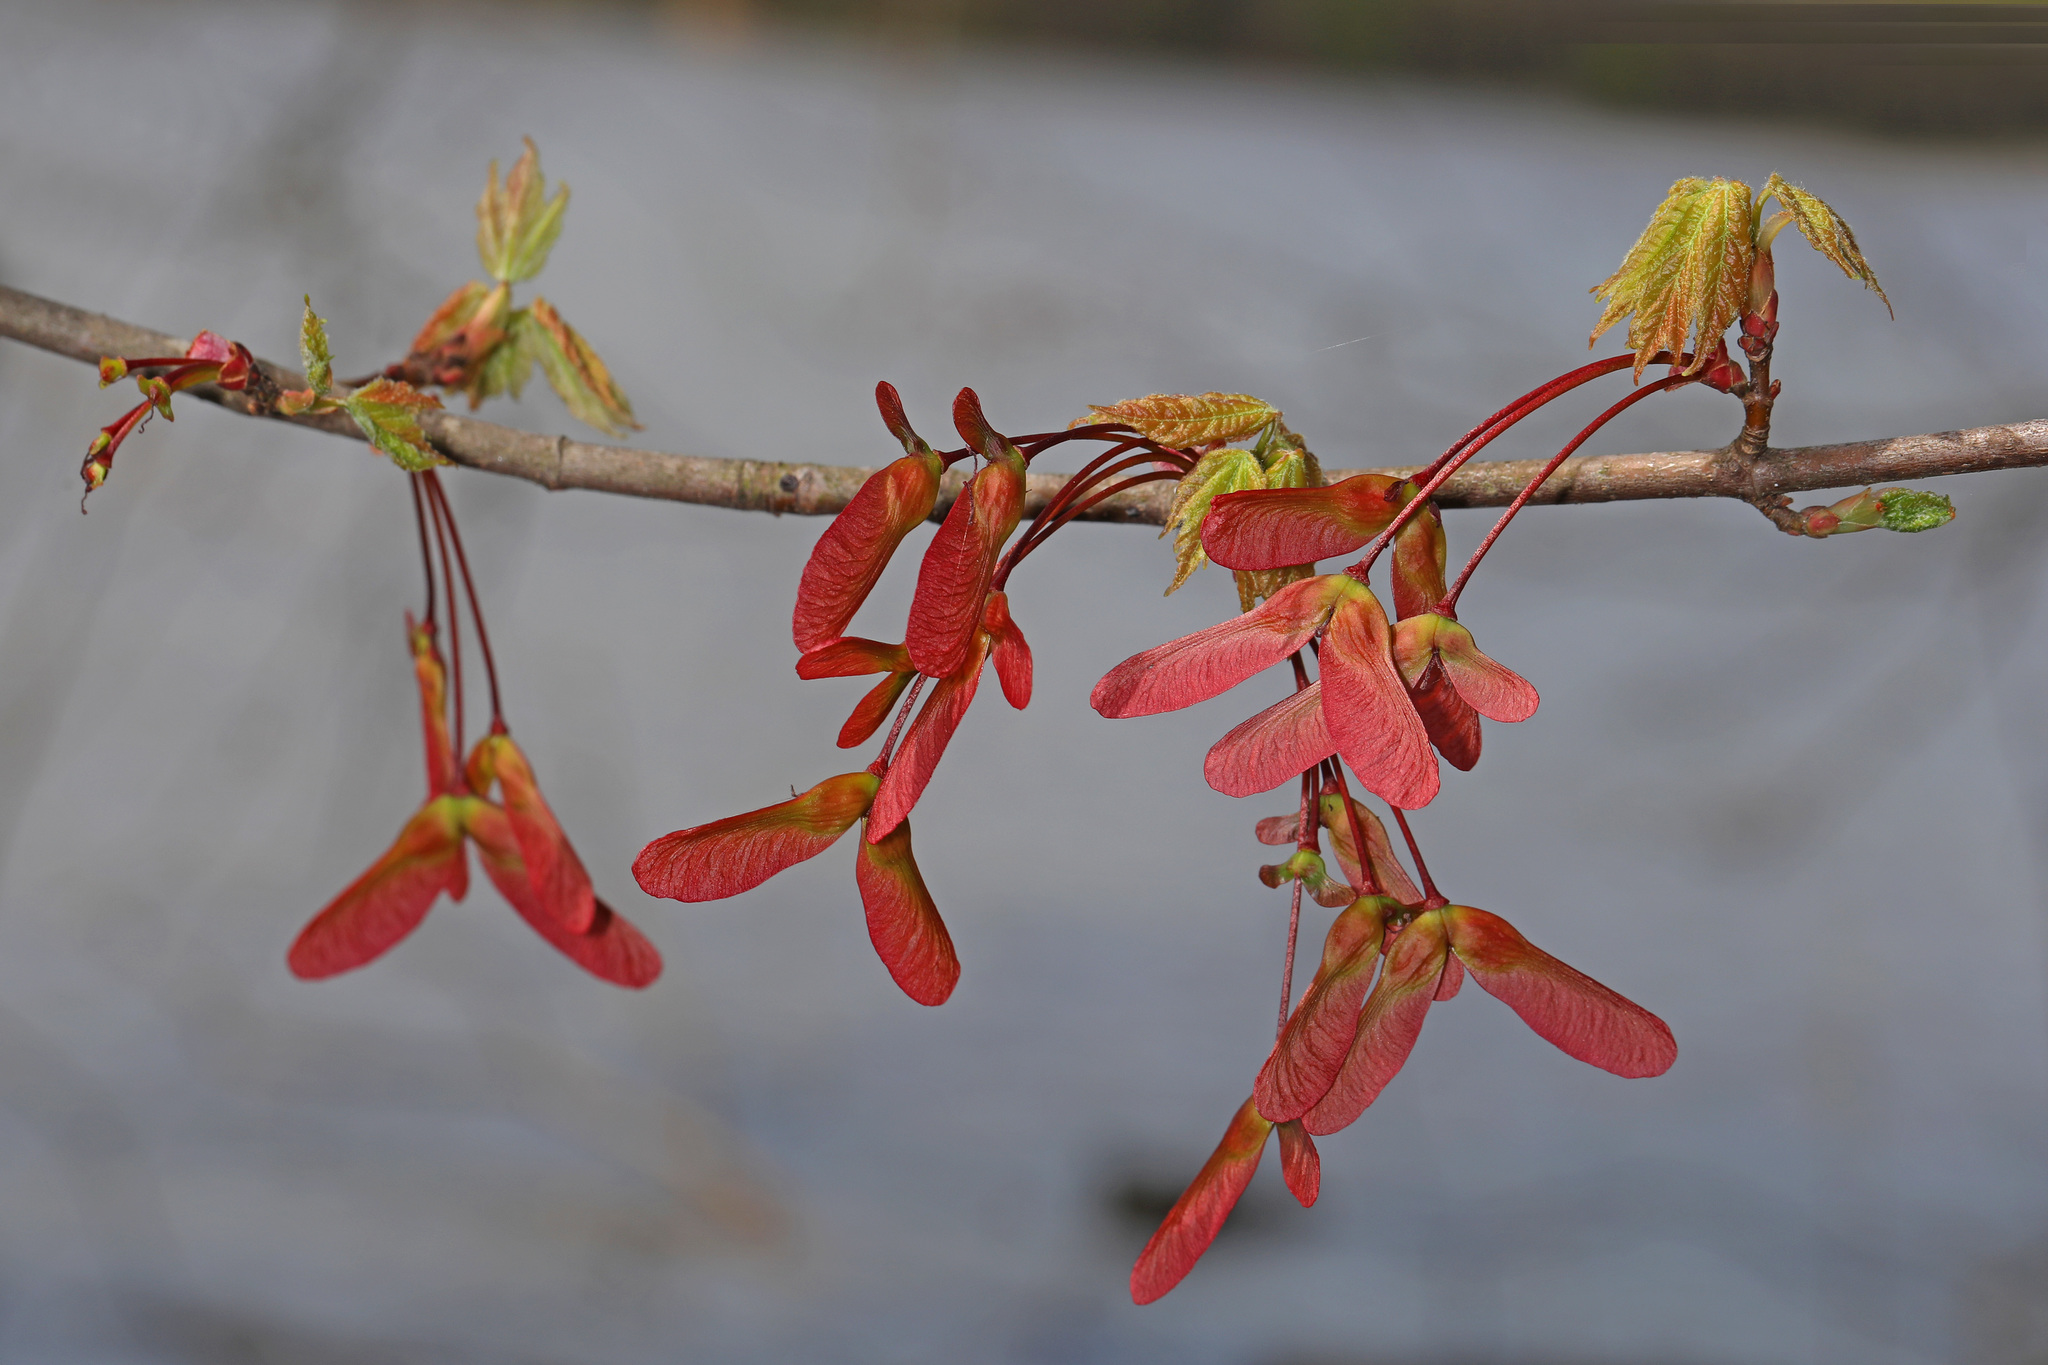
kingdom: Plantae
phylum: Tracheophyta
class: Magnoliopsida
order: Sapindales
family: Sapindaceae
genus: Acer
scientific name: Acer rubrum
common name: Red maple
